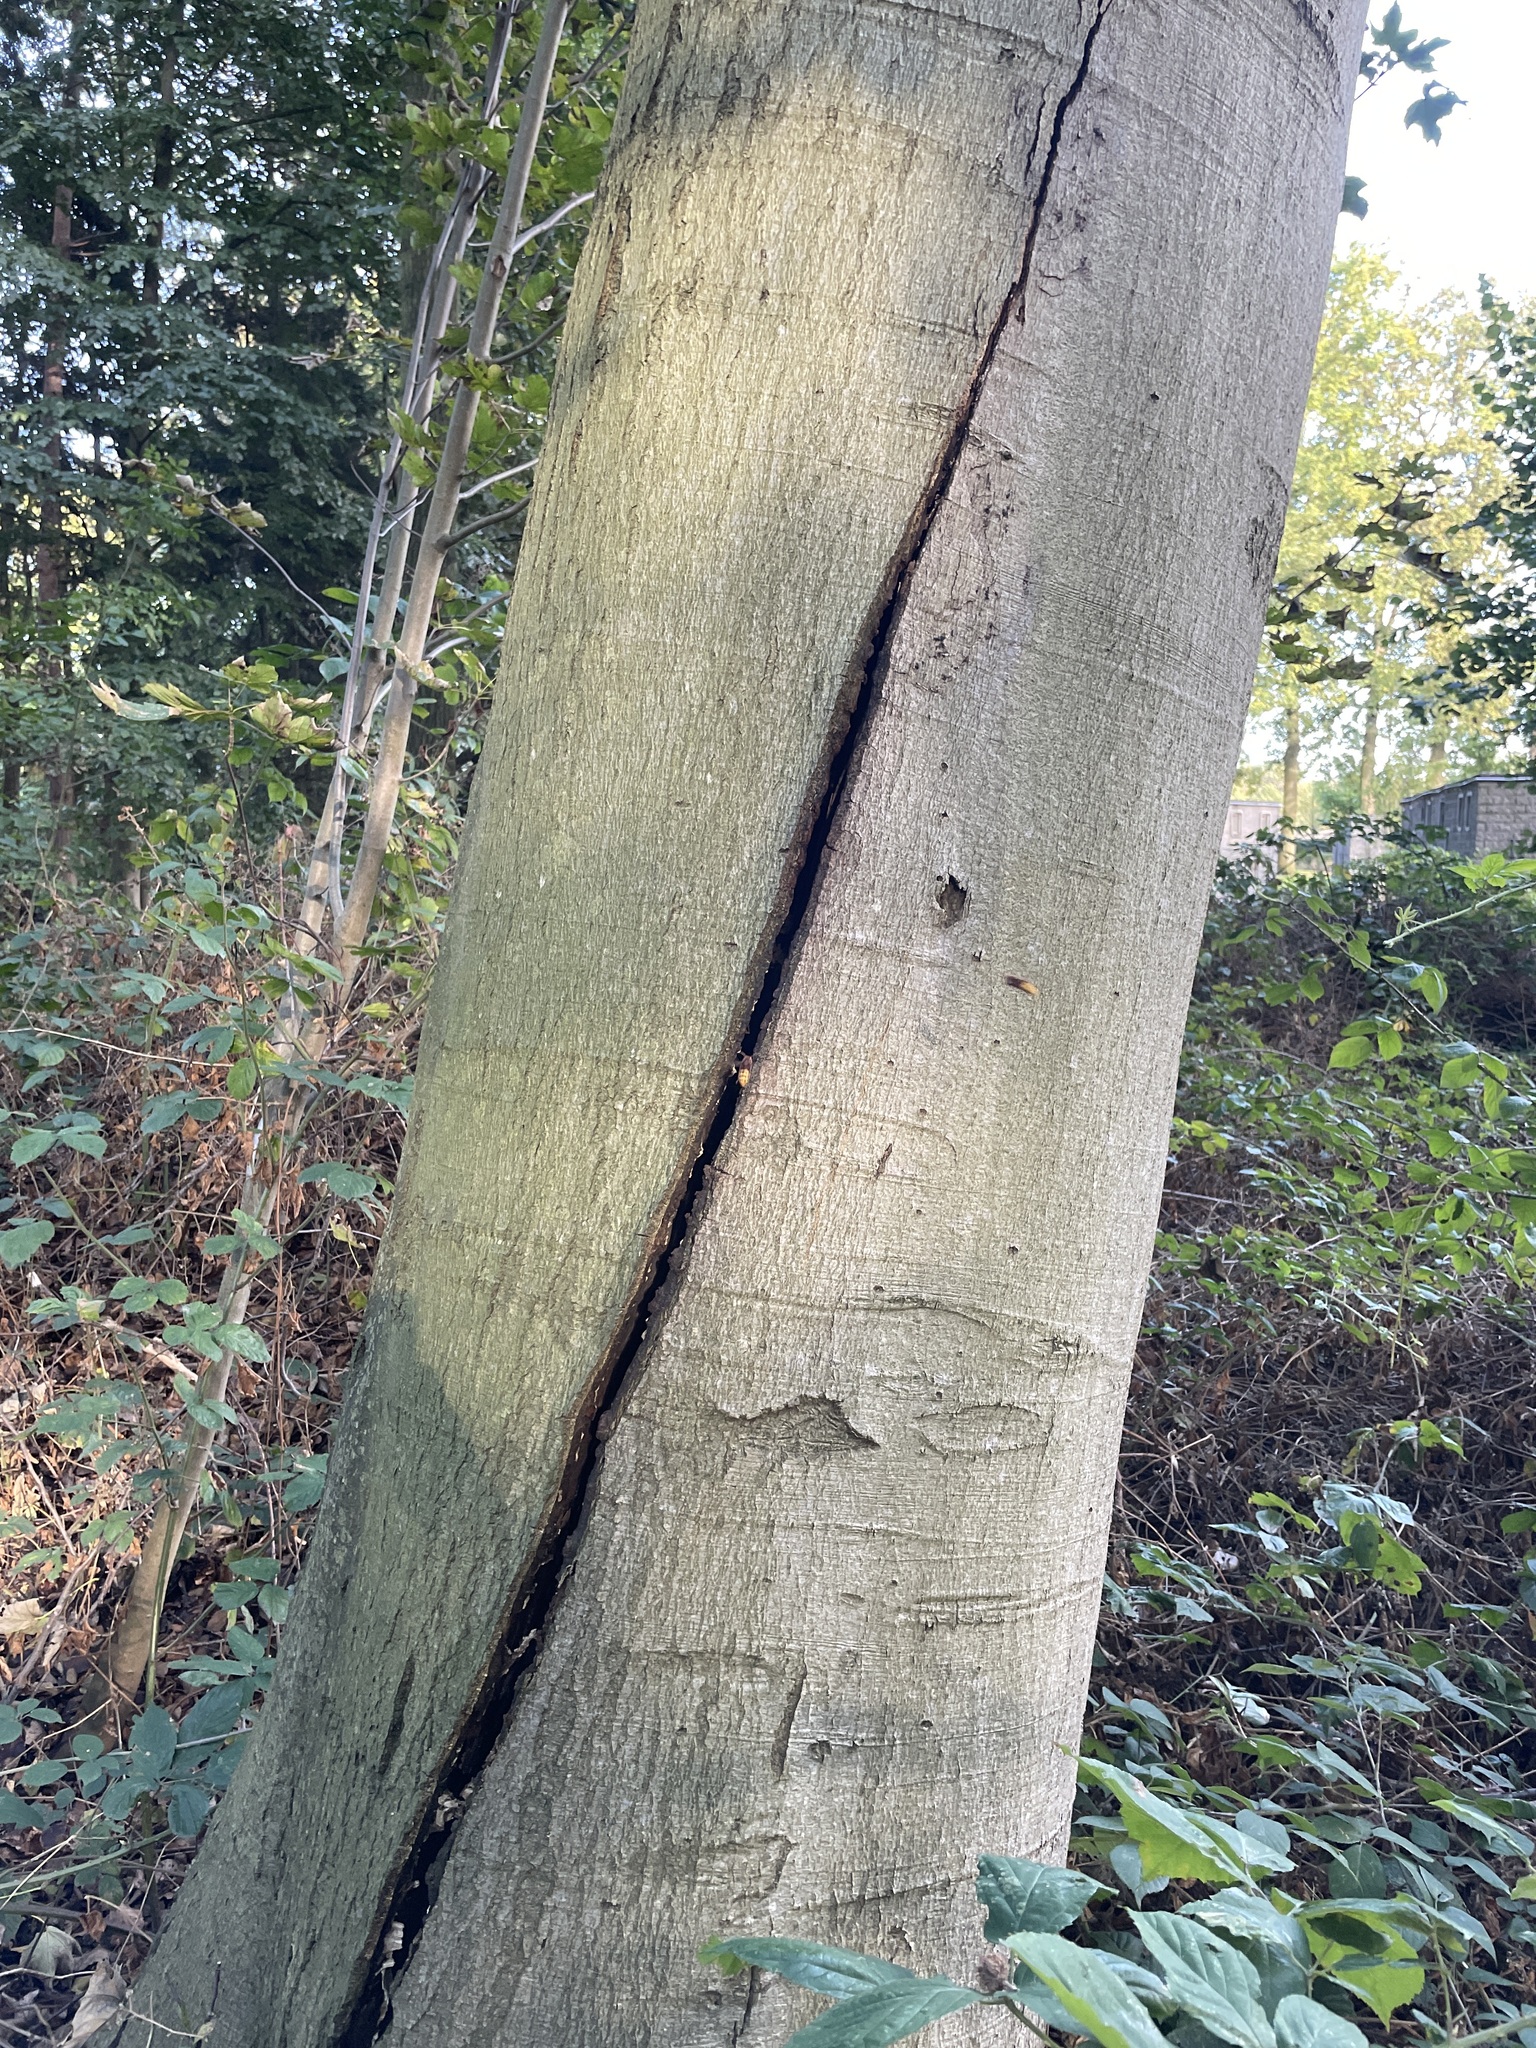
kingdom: Animalia
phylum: Arthropoda
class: Insecta
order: Hymenoptera
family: Vespidae
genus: Vespa
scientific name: Vespa crabro
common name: Hornet
